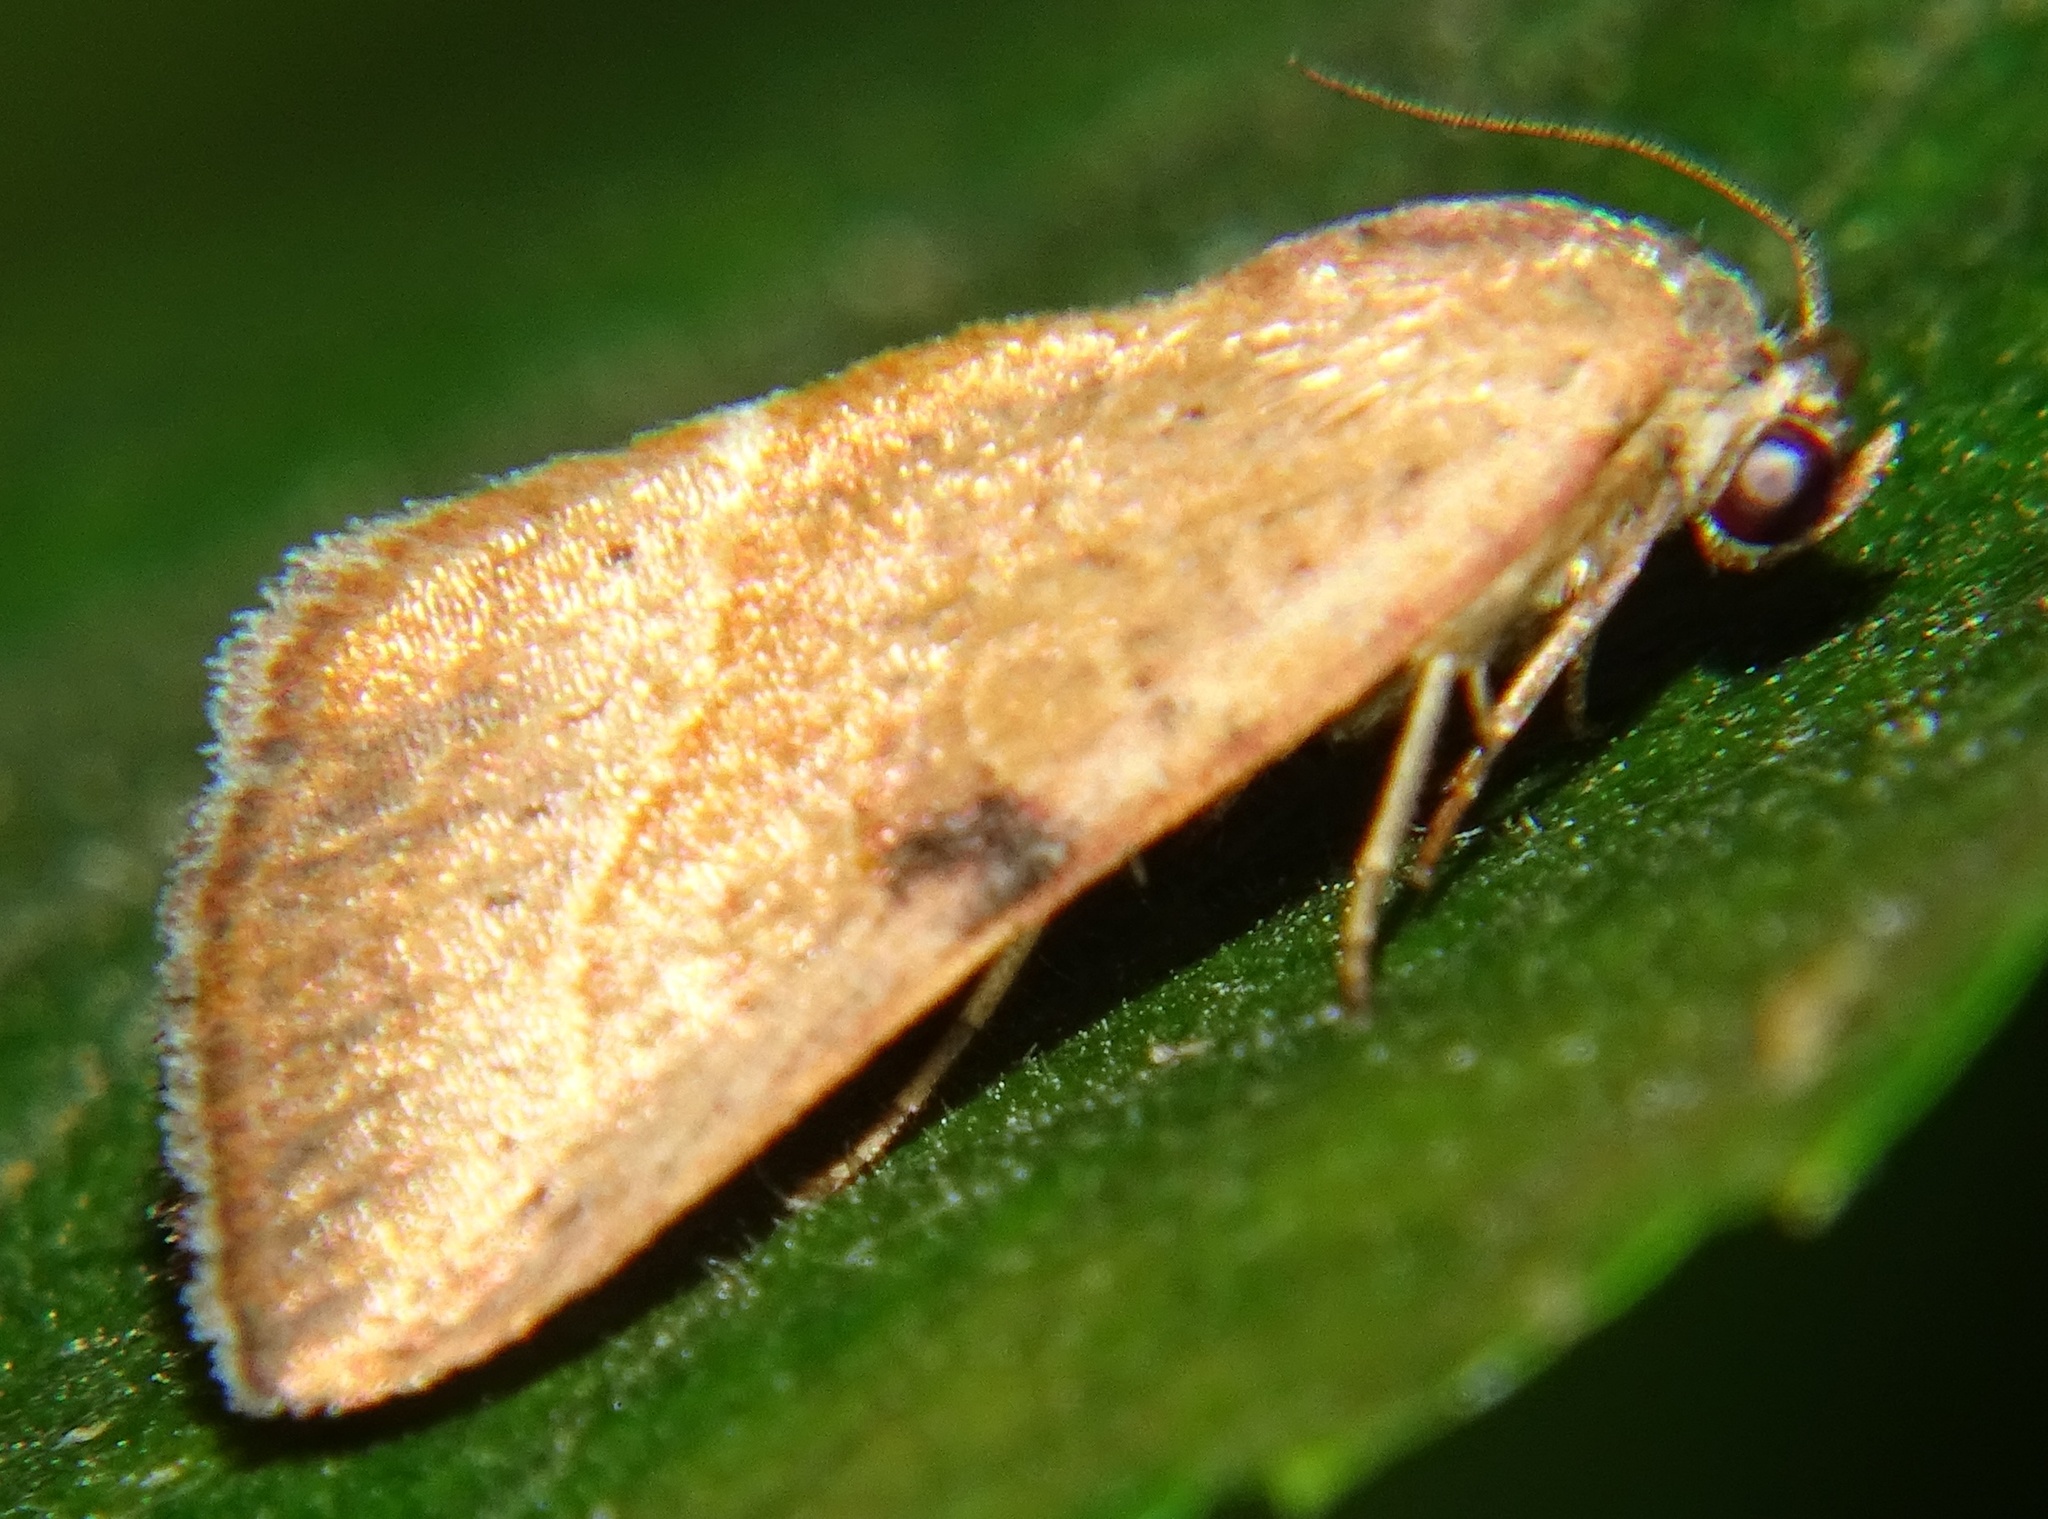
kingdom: Animalia
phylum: Arthropoda
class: Insecta
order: Lepidoptera
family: Noctuidae
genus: Galgula
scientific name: Galgula partita
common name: Wedgeling
